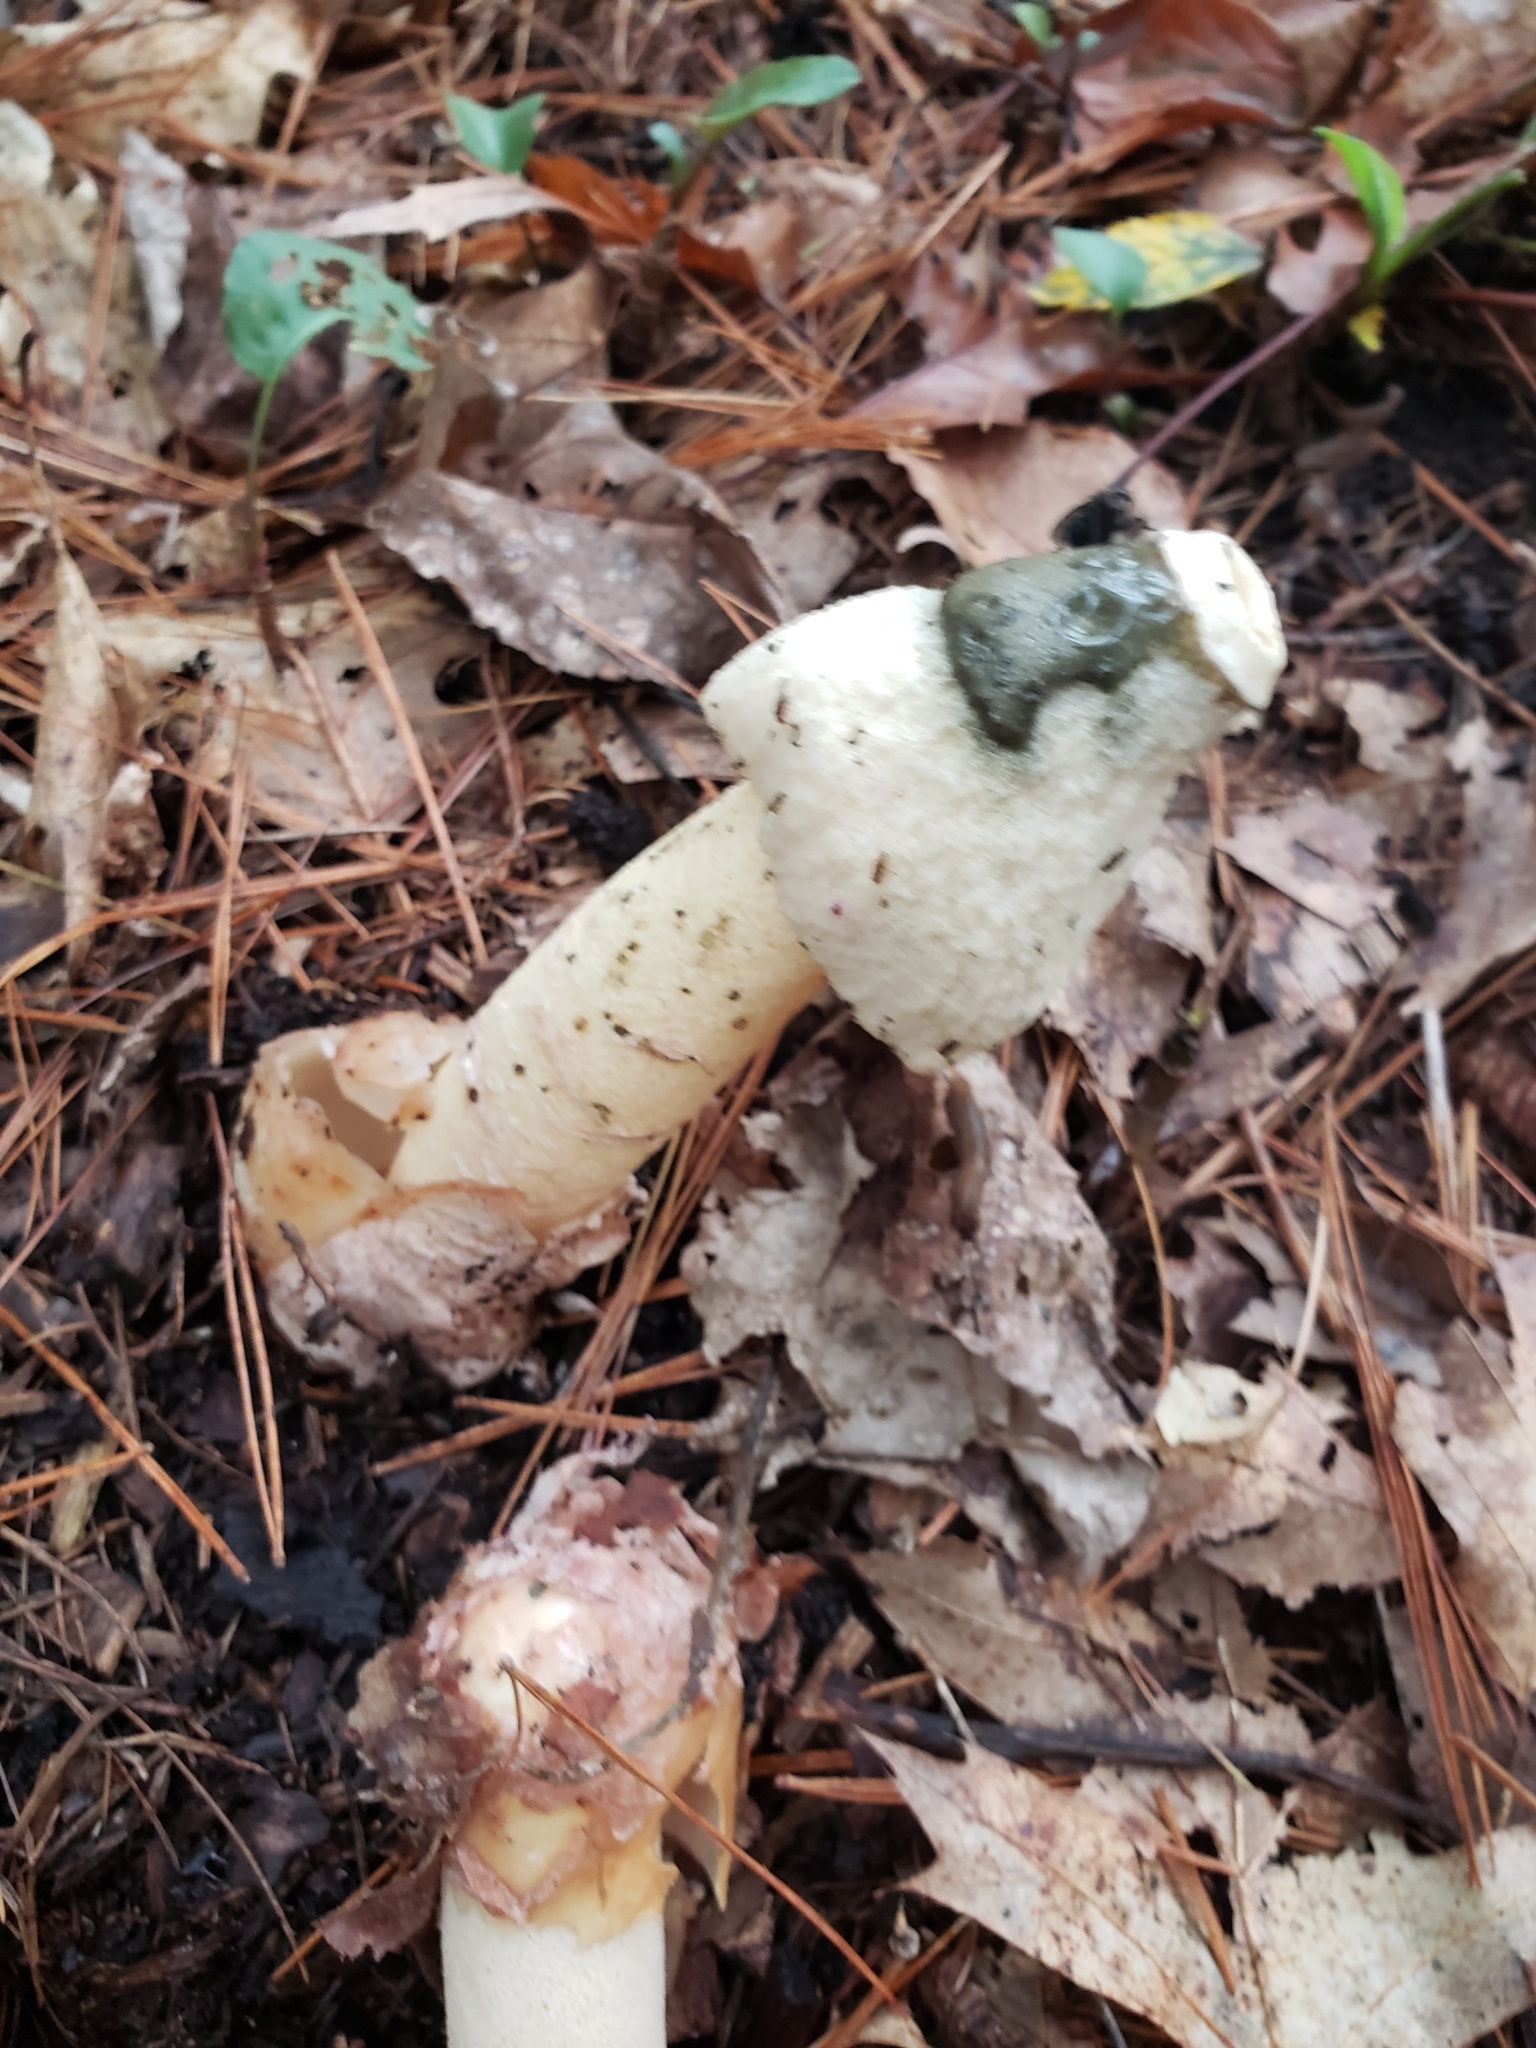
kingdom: Fungi
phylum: Basidiomycota
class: Agaricomycetes
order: Phallales
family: Phallaceae
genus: Phallus
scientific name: Phallus ravenelii
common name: Ravenel's stinkhorn
